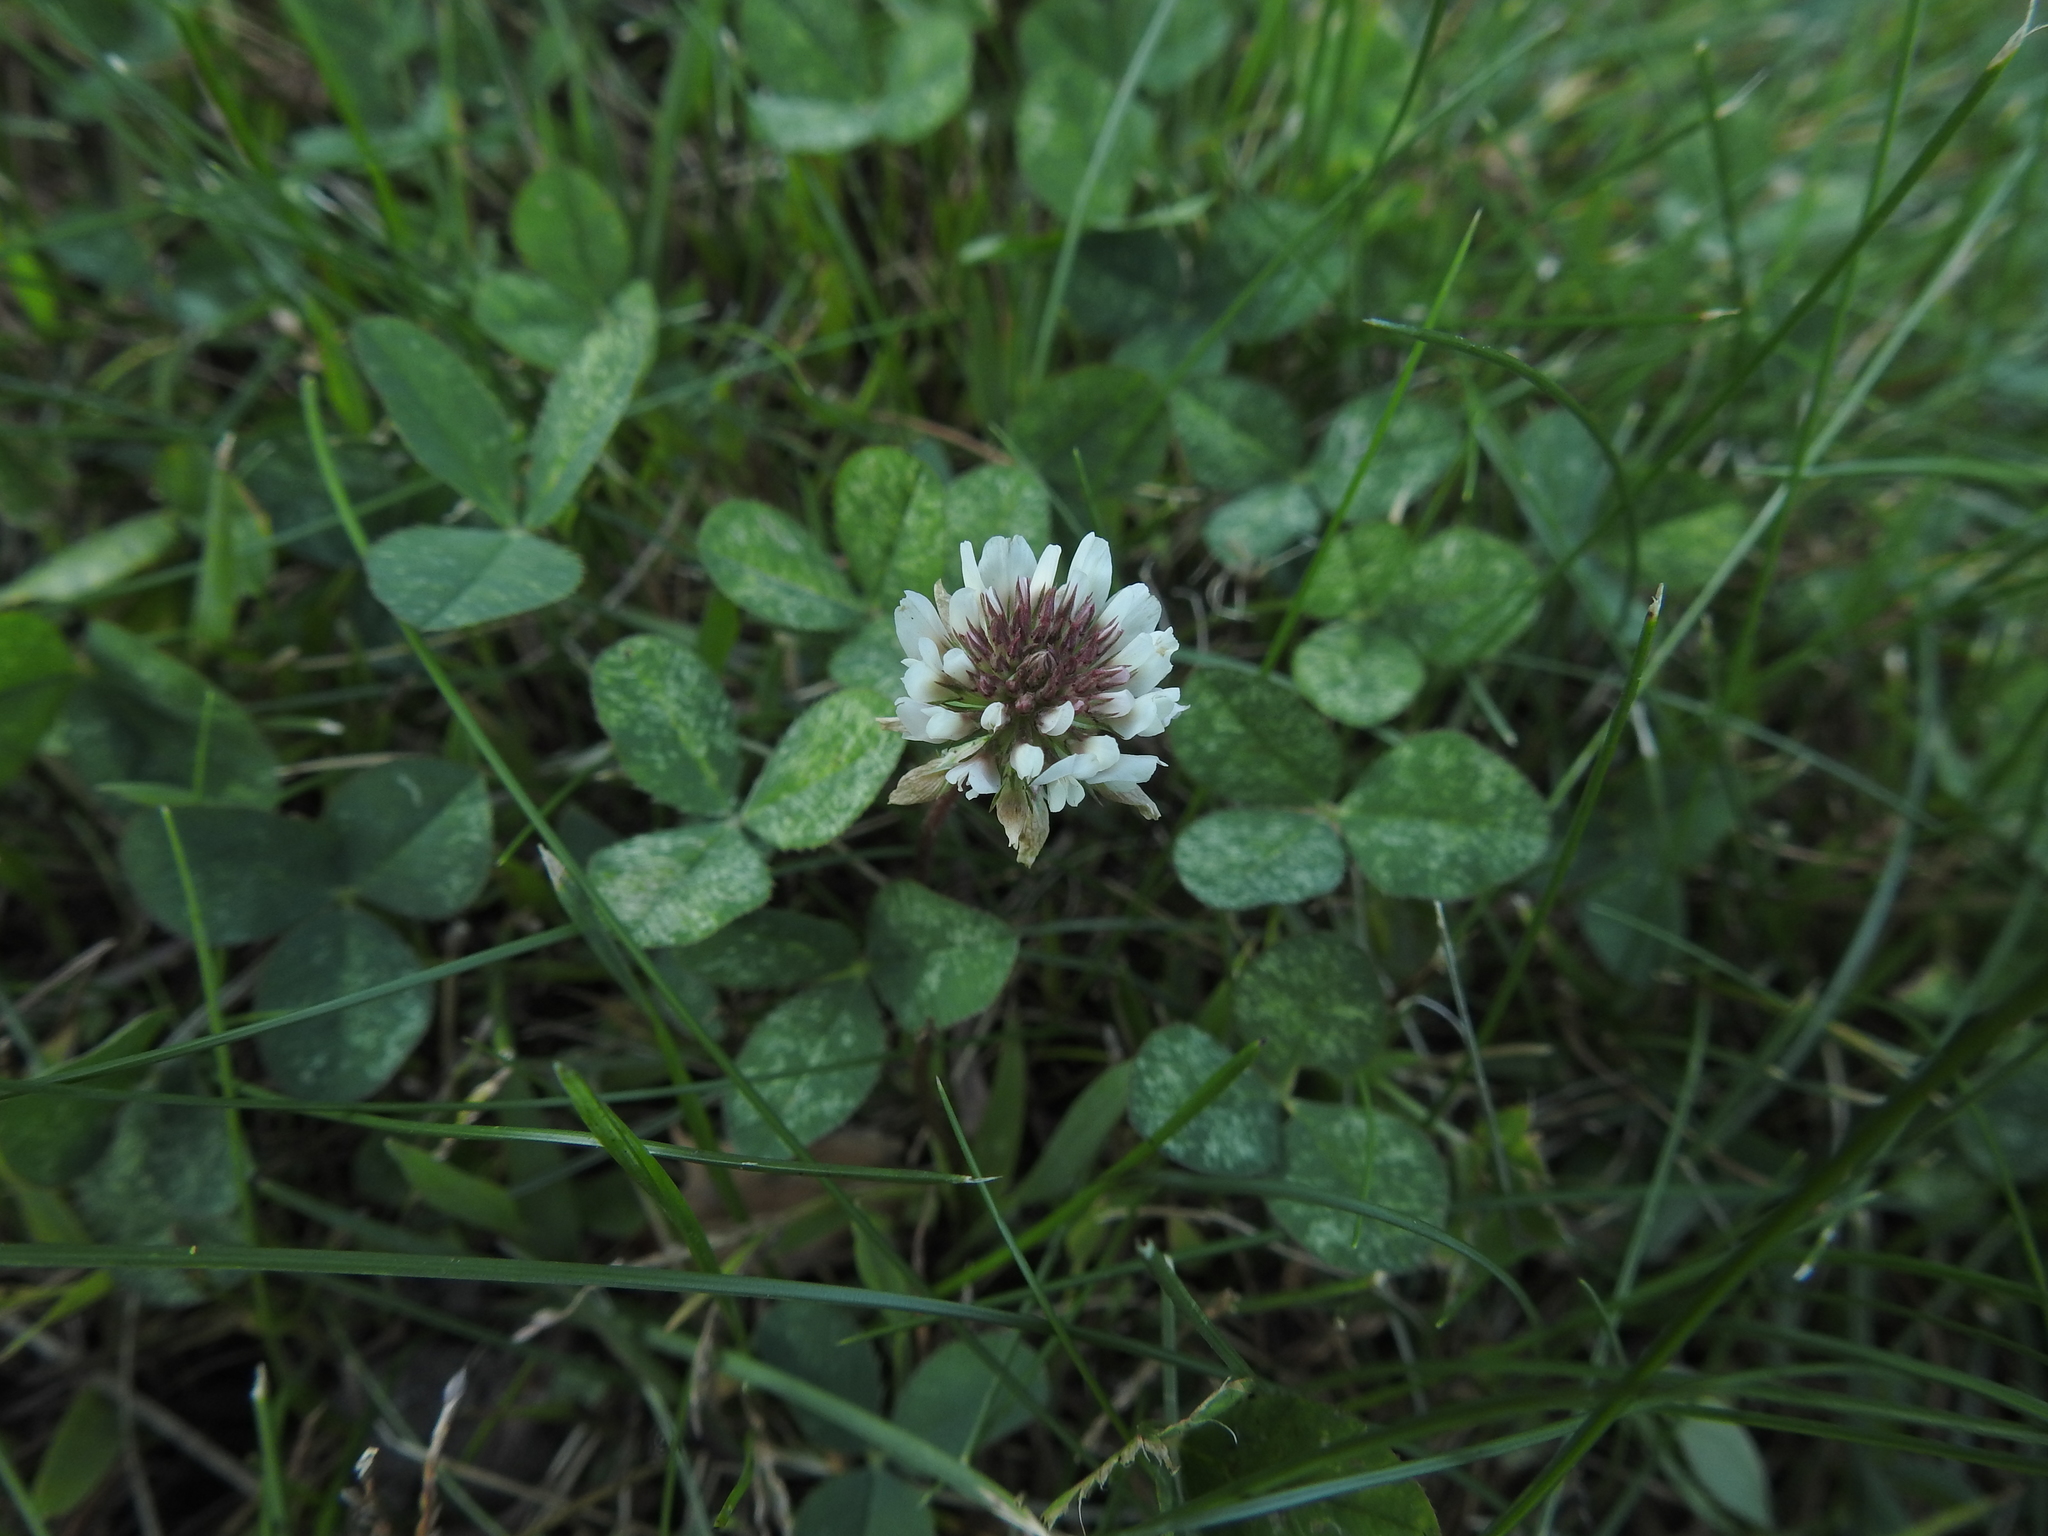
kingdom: Plantae
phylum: Tracheophyta
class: Magnoliopsida
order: Fabales
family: Fabaceae
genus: Trifolium
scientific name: Trifolium repens
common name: White clover
